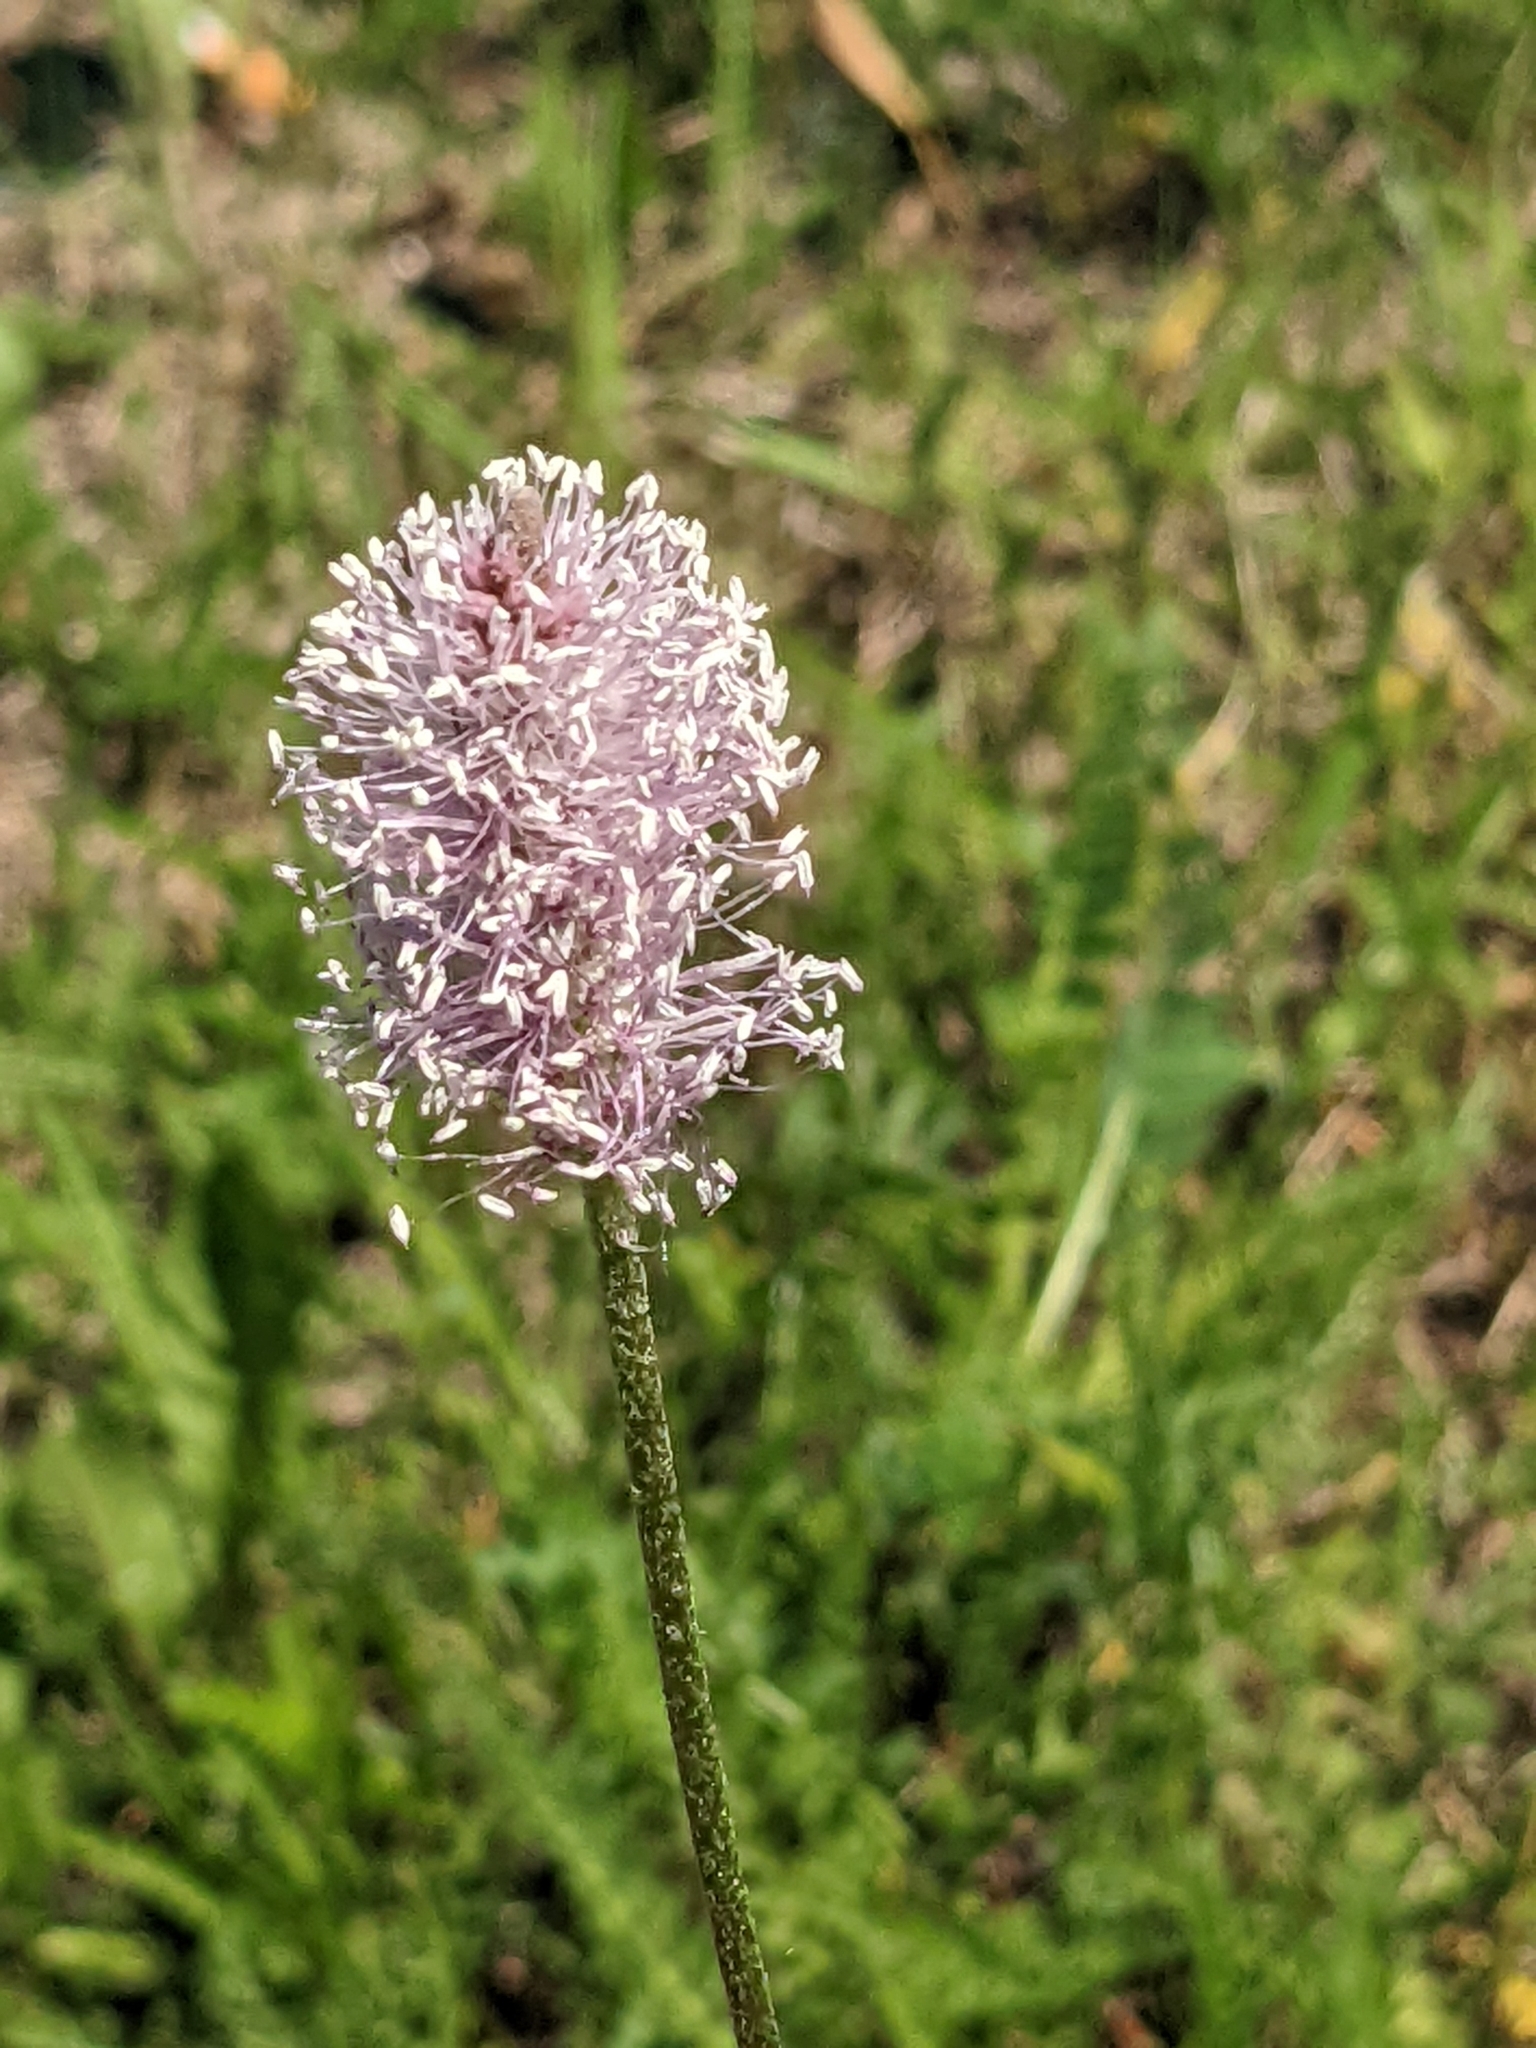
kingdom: Plantae
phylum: Tracheophyta
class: Magnoliopsida
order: Lamiales
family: Plantaginaceae
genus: Plantago
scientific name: Plantago media
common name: Hoary plantain
